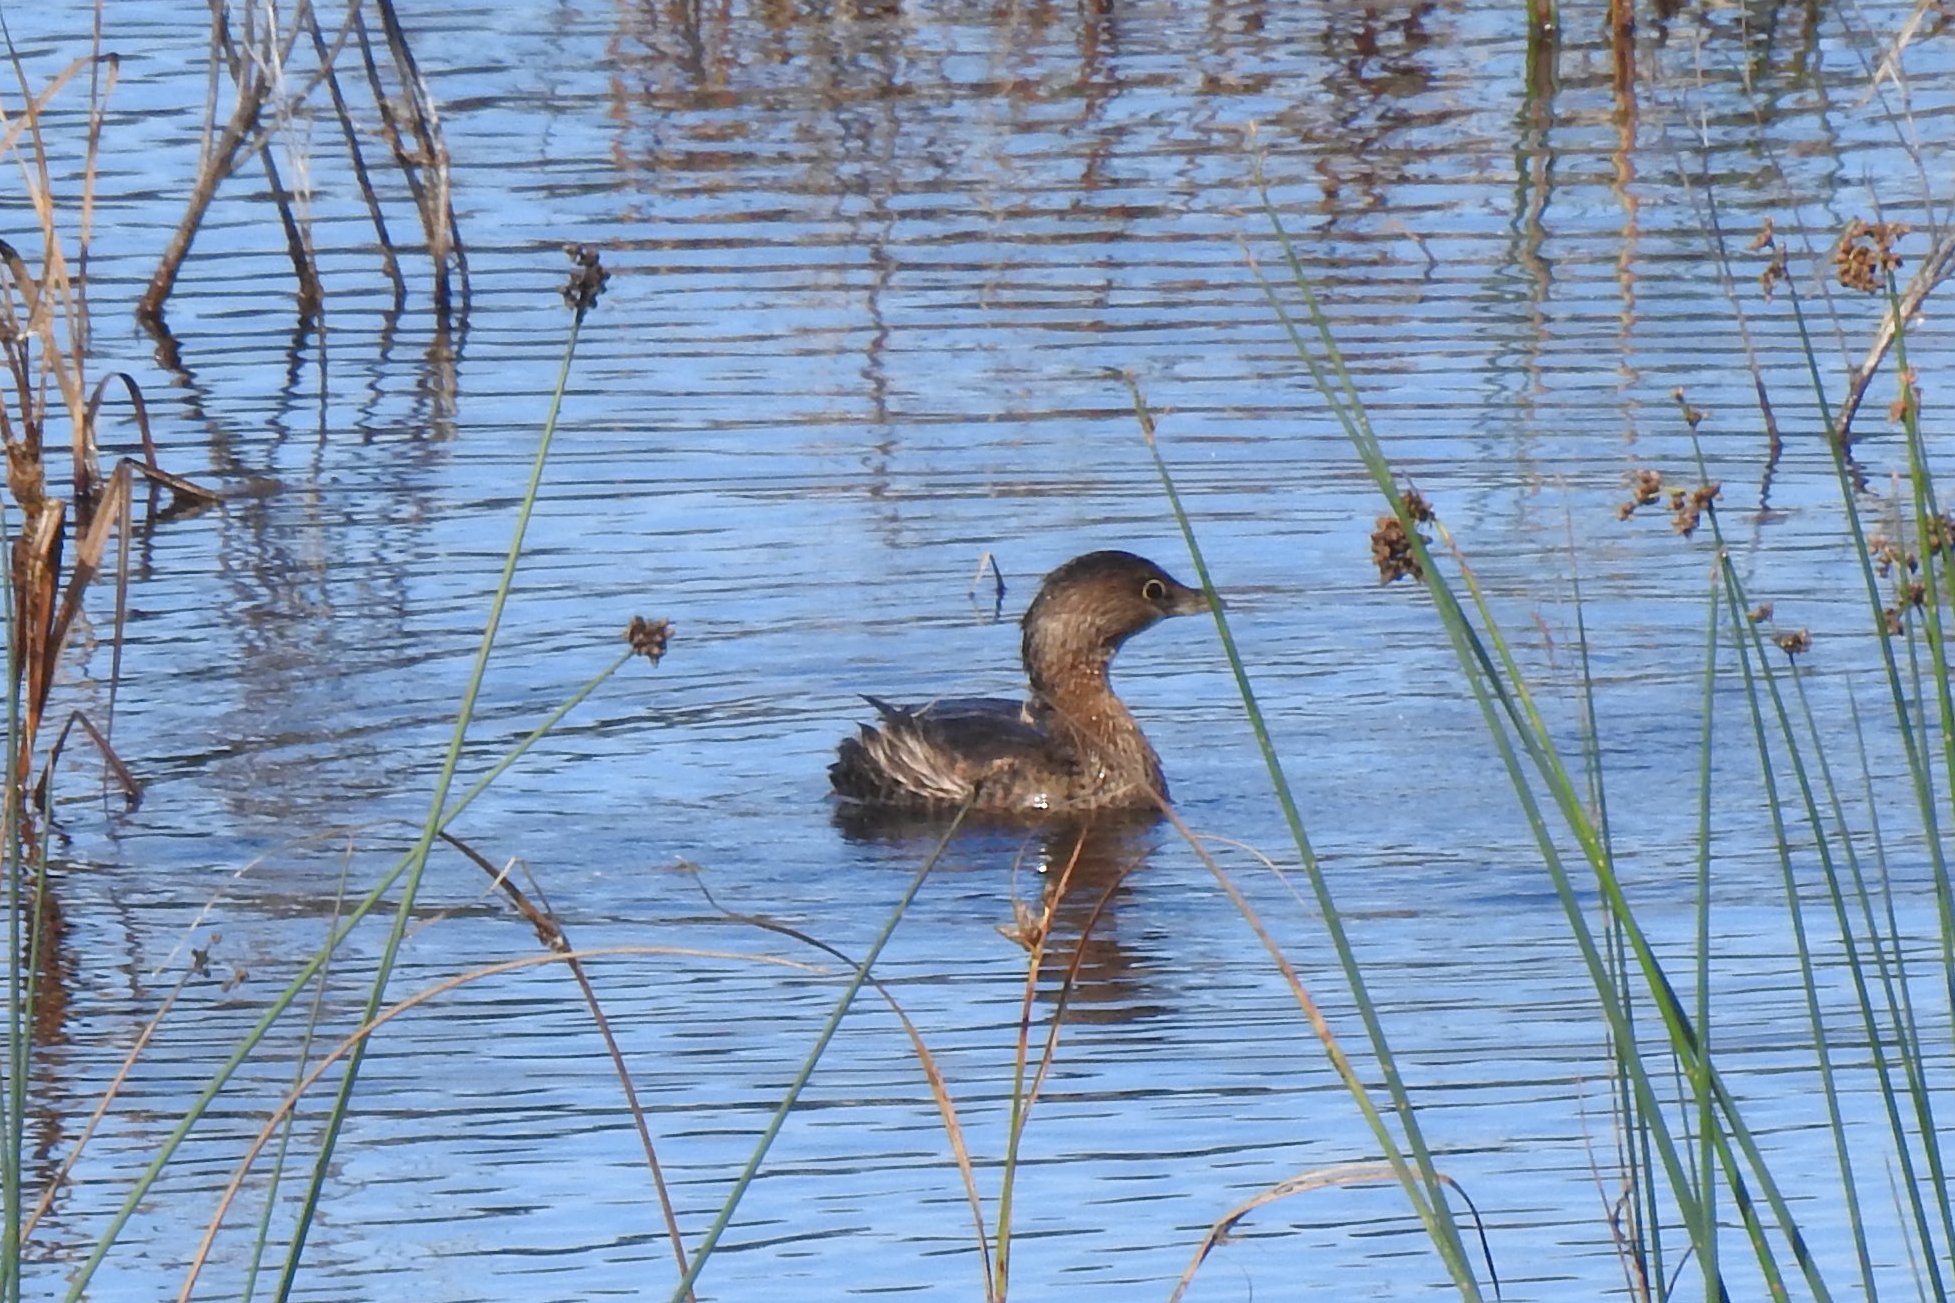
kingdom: Animalia
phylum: Chordata
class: Aves
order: Podicipediformes
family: Podicipedidae
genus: Podilymbus
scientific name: Podilymbus podiceps
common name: Pied-billed grebe
